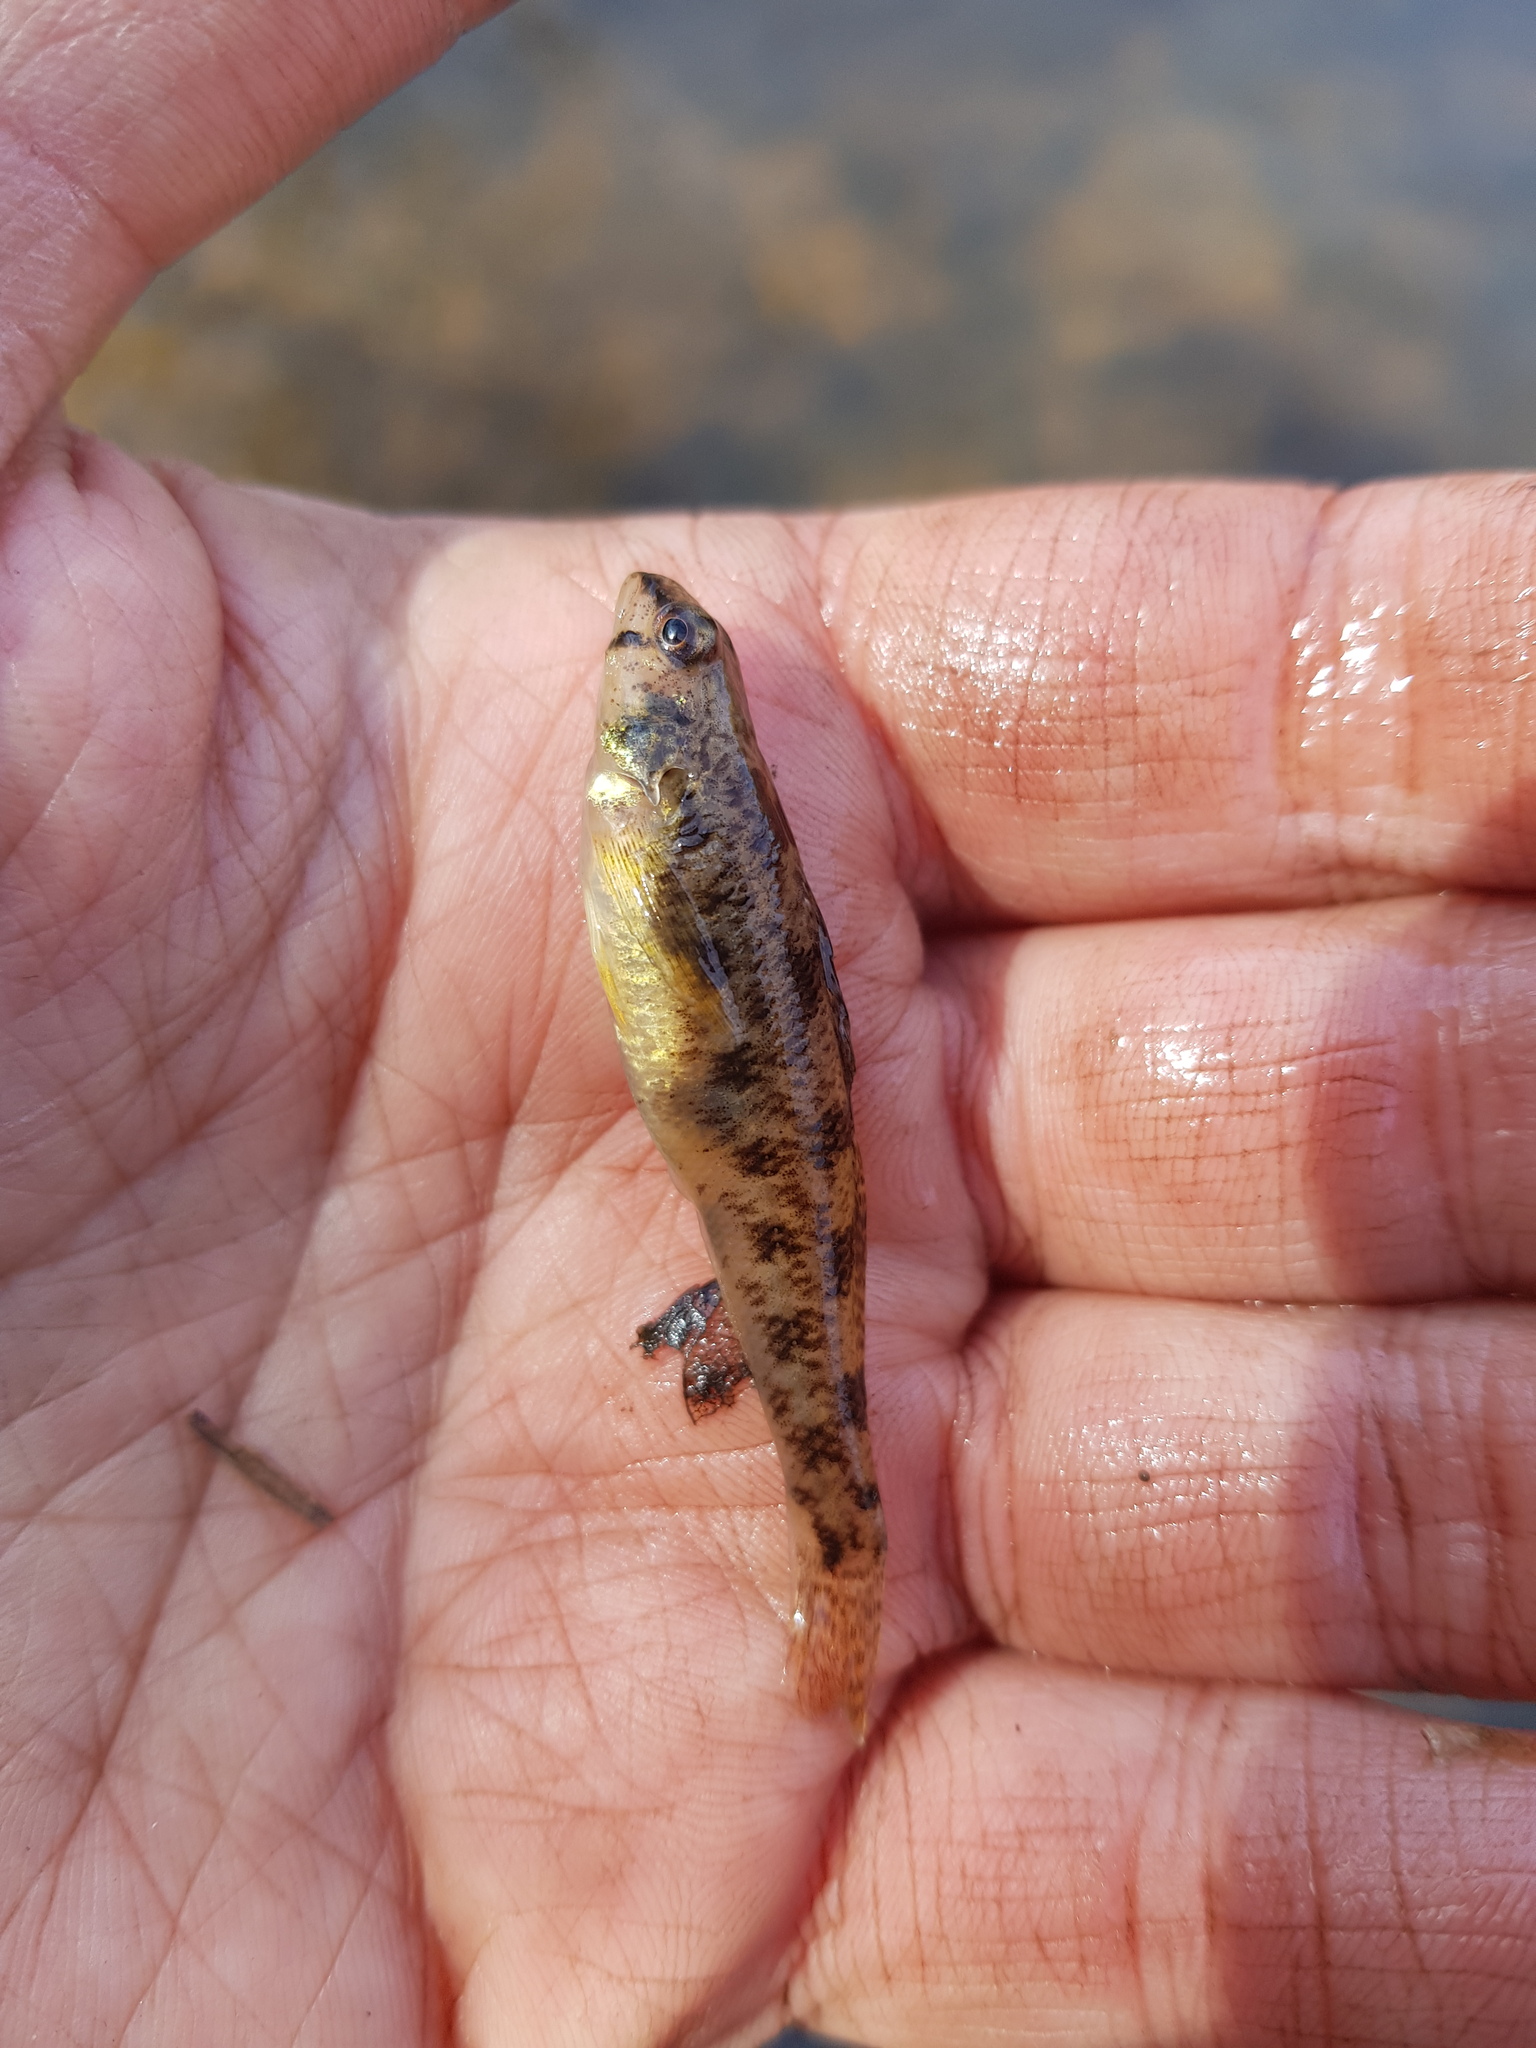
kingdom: Animalia
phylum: Chordata
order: Perciformes
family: Percidae
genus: Etheostoma
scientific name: Etheostoma olmstedi
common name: Tessellated darter
